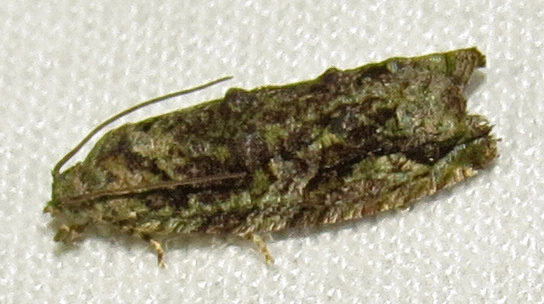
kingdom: Animalia
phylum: Arthropoda
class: Insecta
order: Lepidoptera
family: Tortricidae
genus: Proteoteras
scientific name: Proteoteras aesculana
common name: Maple twig borer moth
